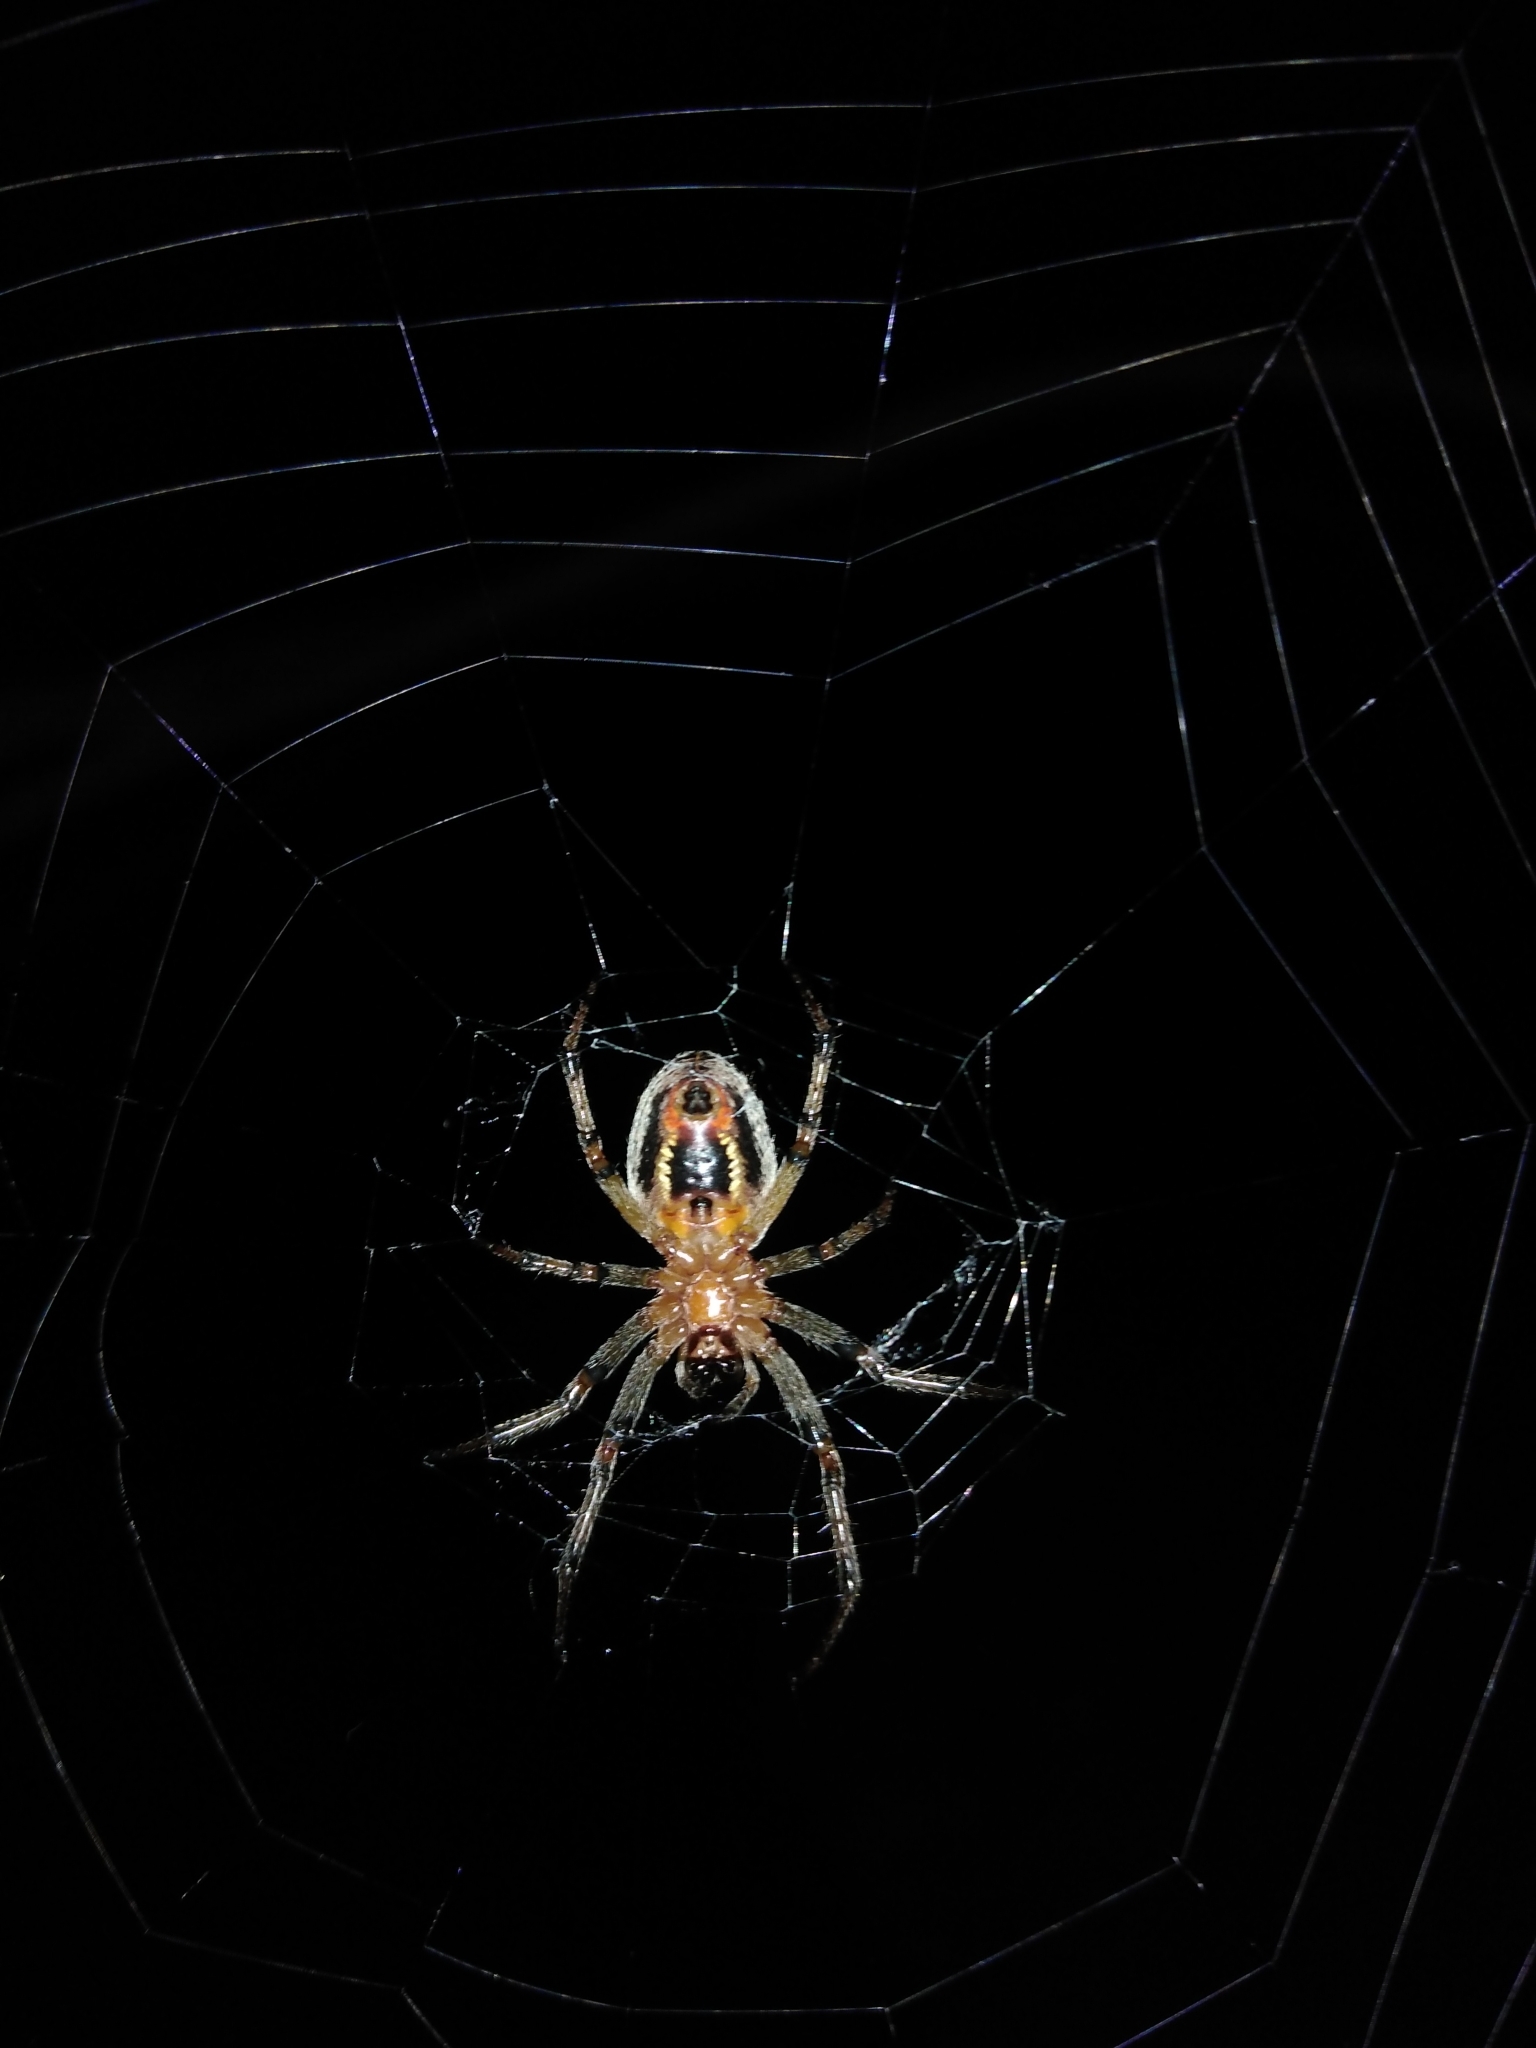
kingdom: Animalia
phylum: Arthropoda
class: Arachnida
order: Araneae
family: Araneidae
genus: Alpaida
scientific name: Alpaida veniliae
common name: Orb weavers
